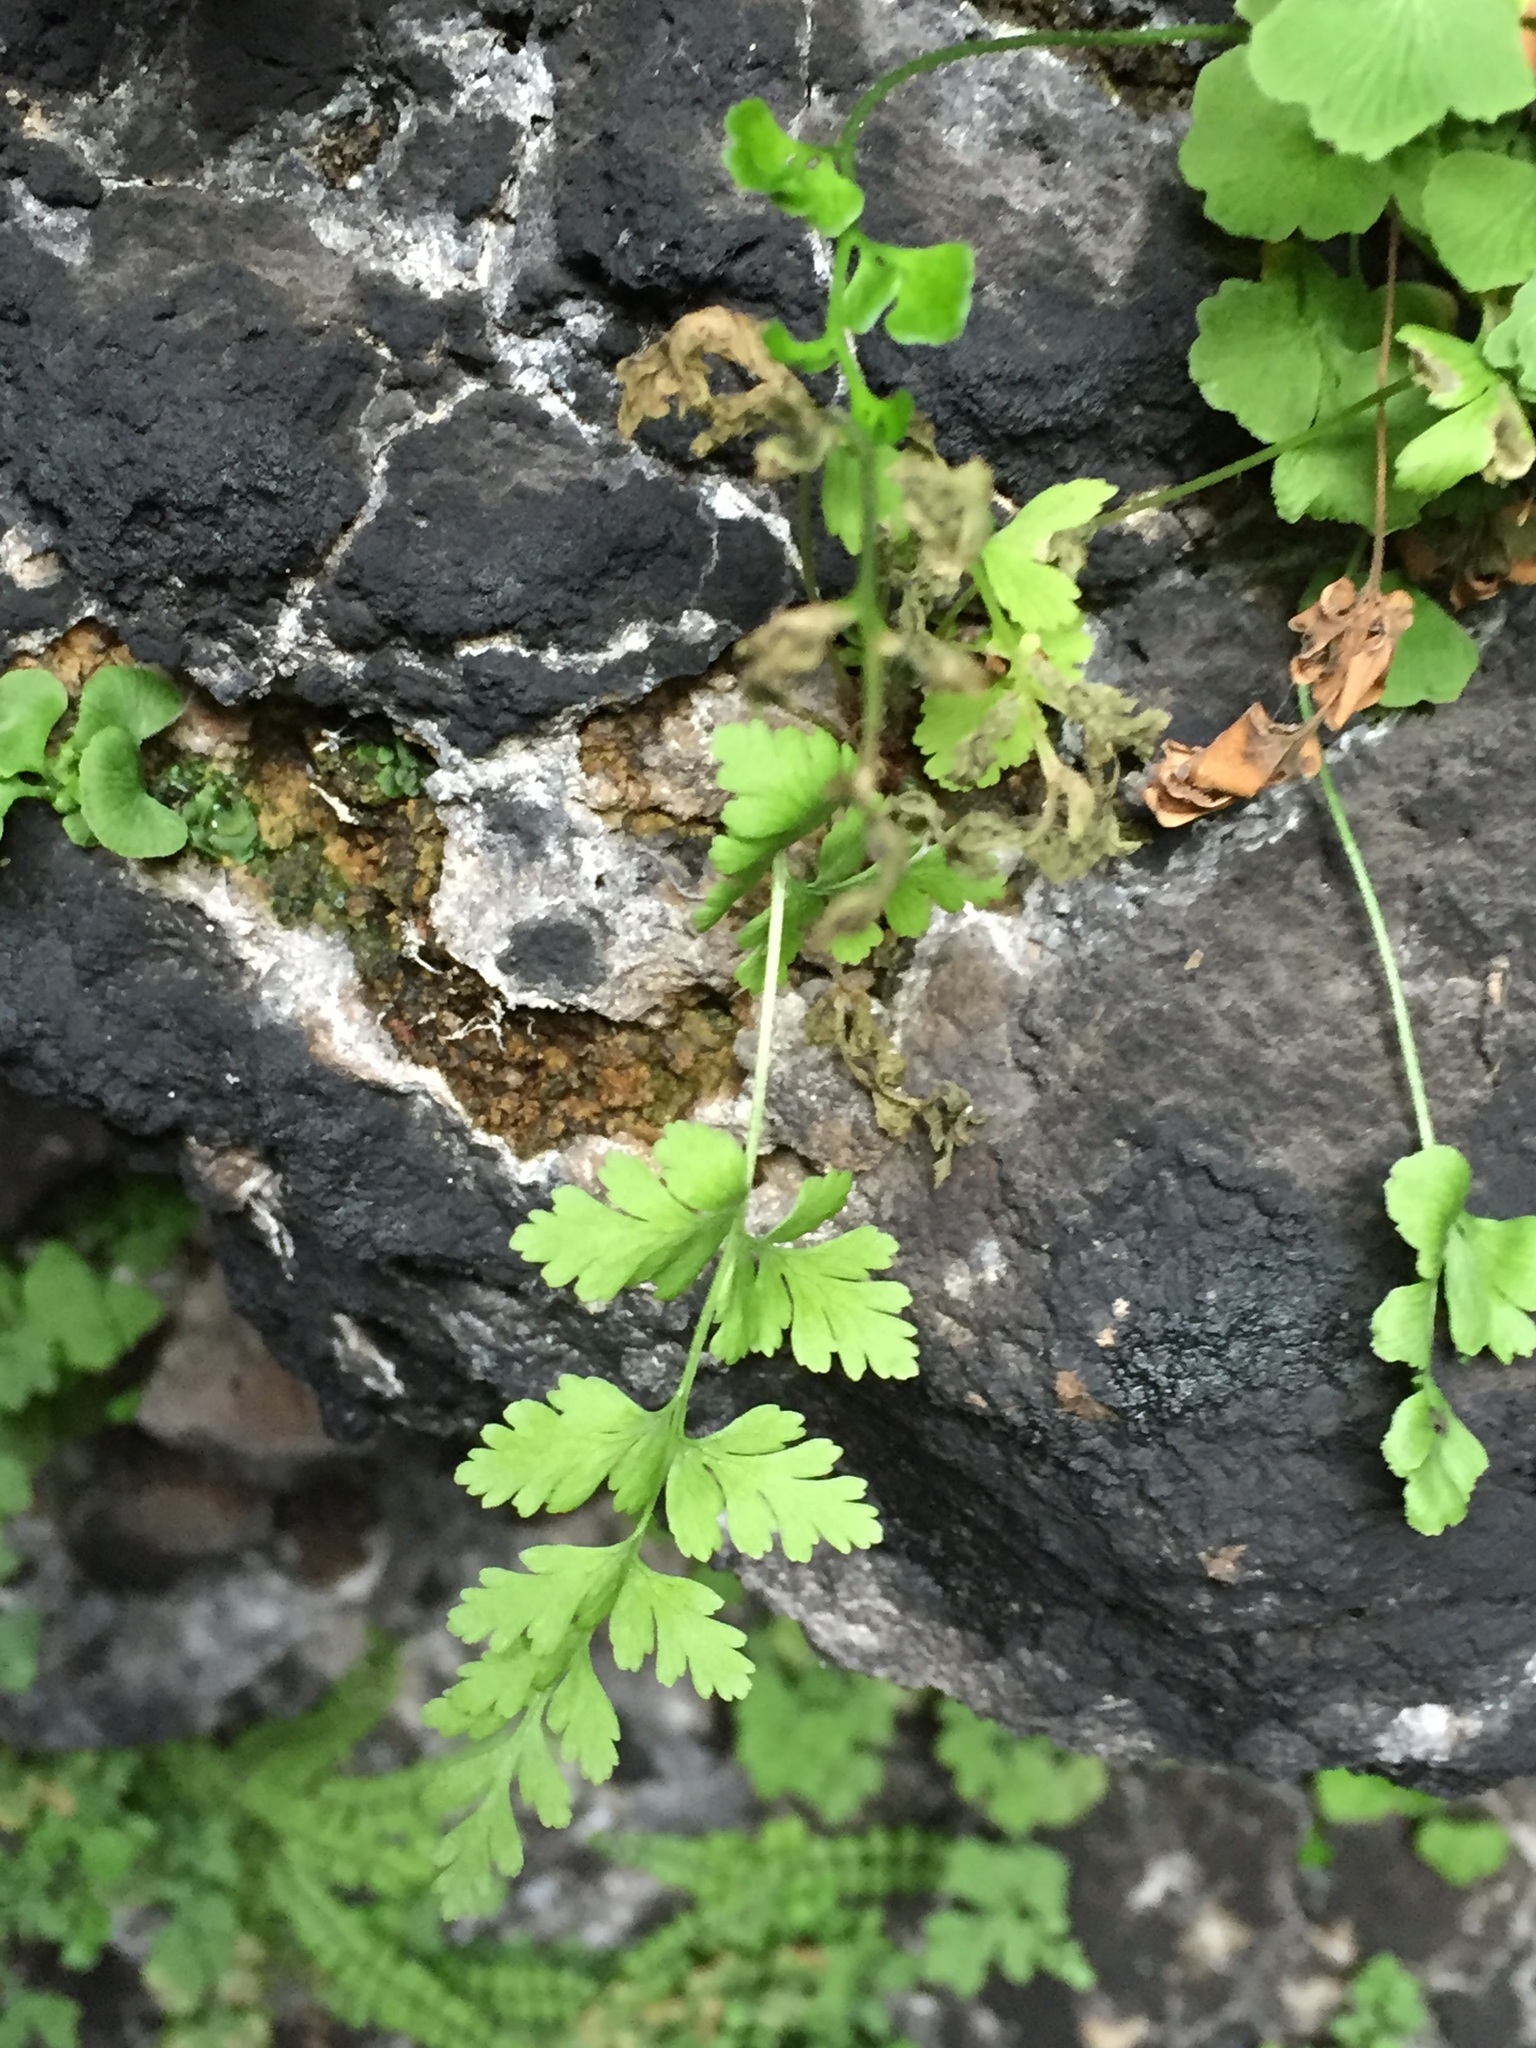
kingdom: Plantae
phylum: Tracheophyta
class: Polypodiopsida
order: Polypodiales
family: Cystopteridaceae
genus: Cystopteris
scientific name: Cystopteris fragilis
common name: Brittle bladder fern
